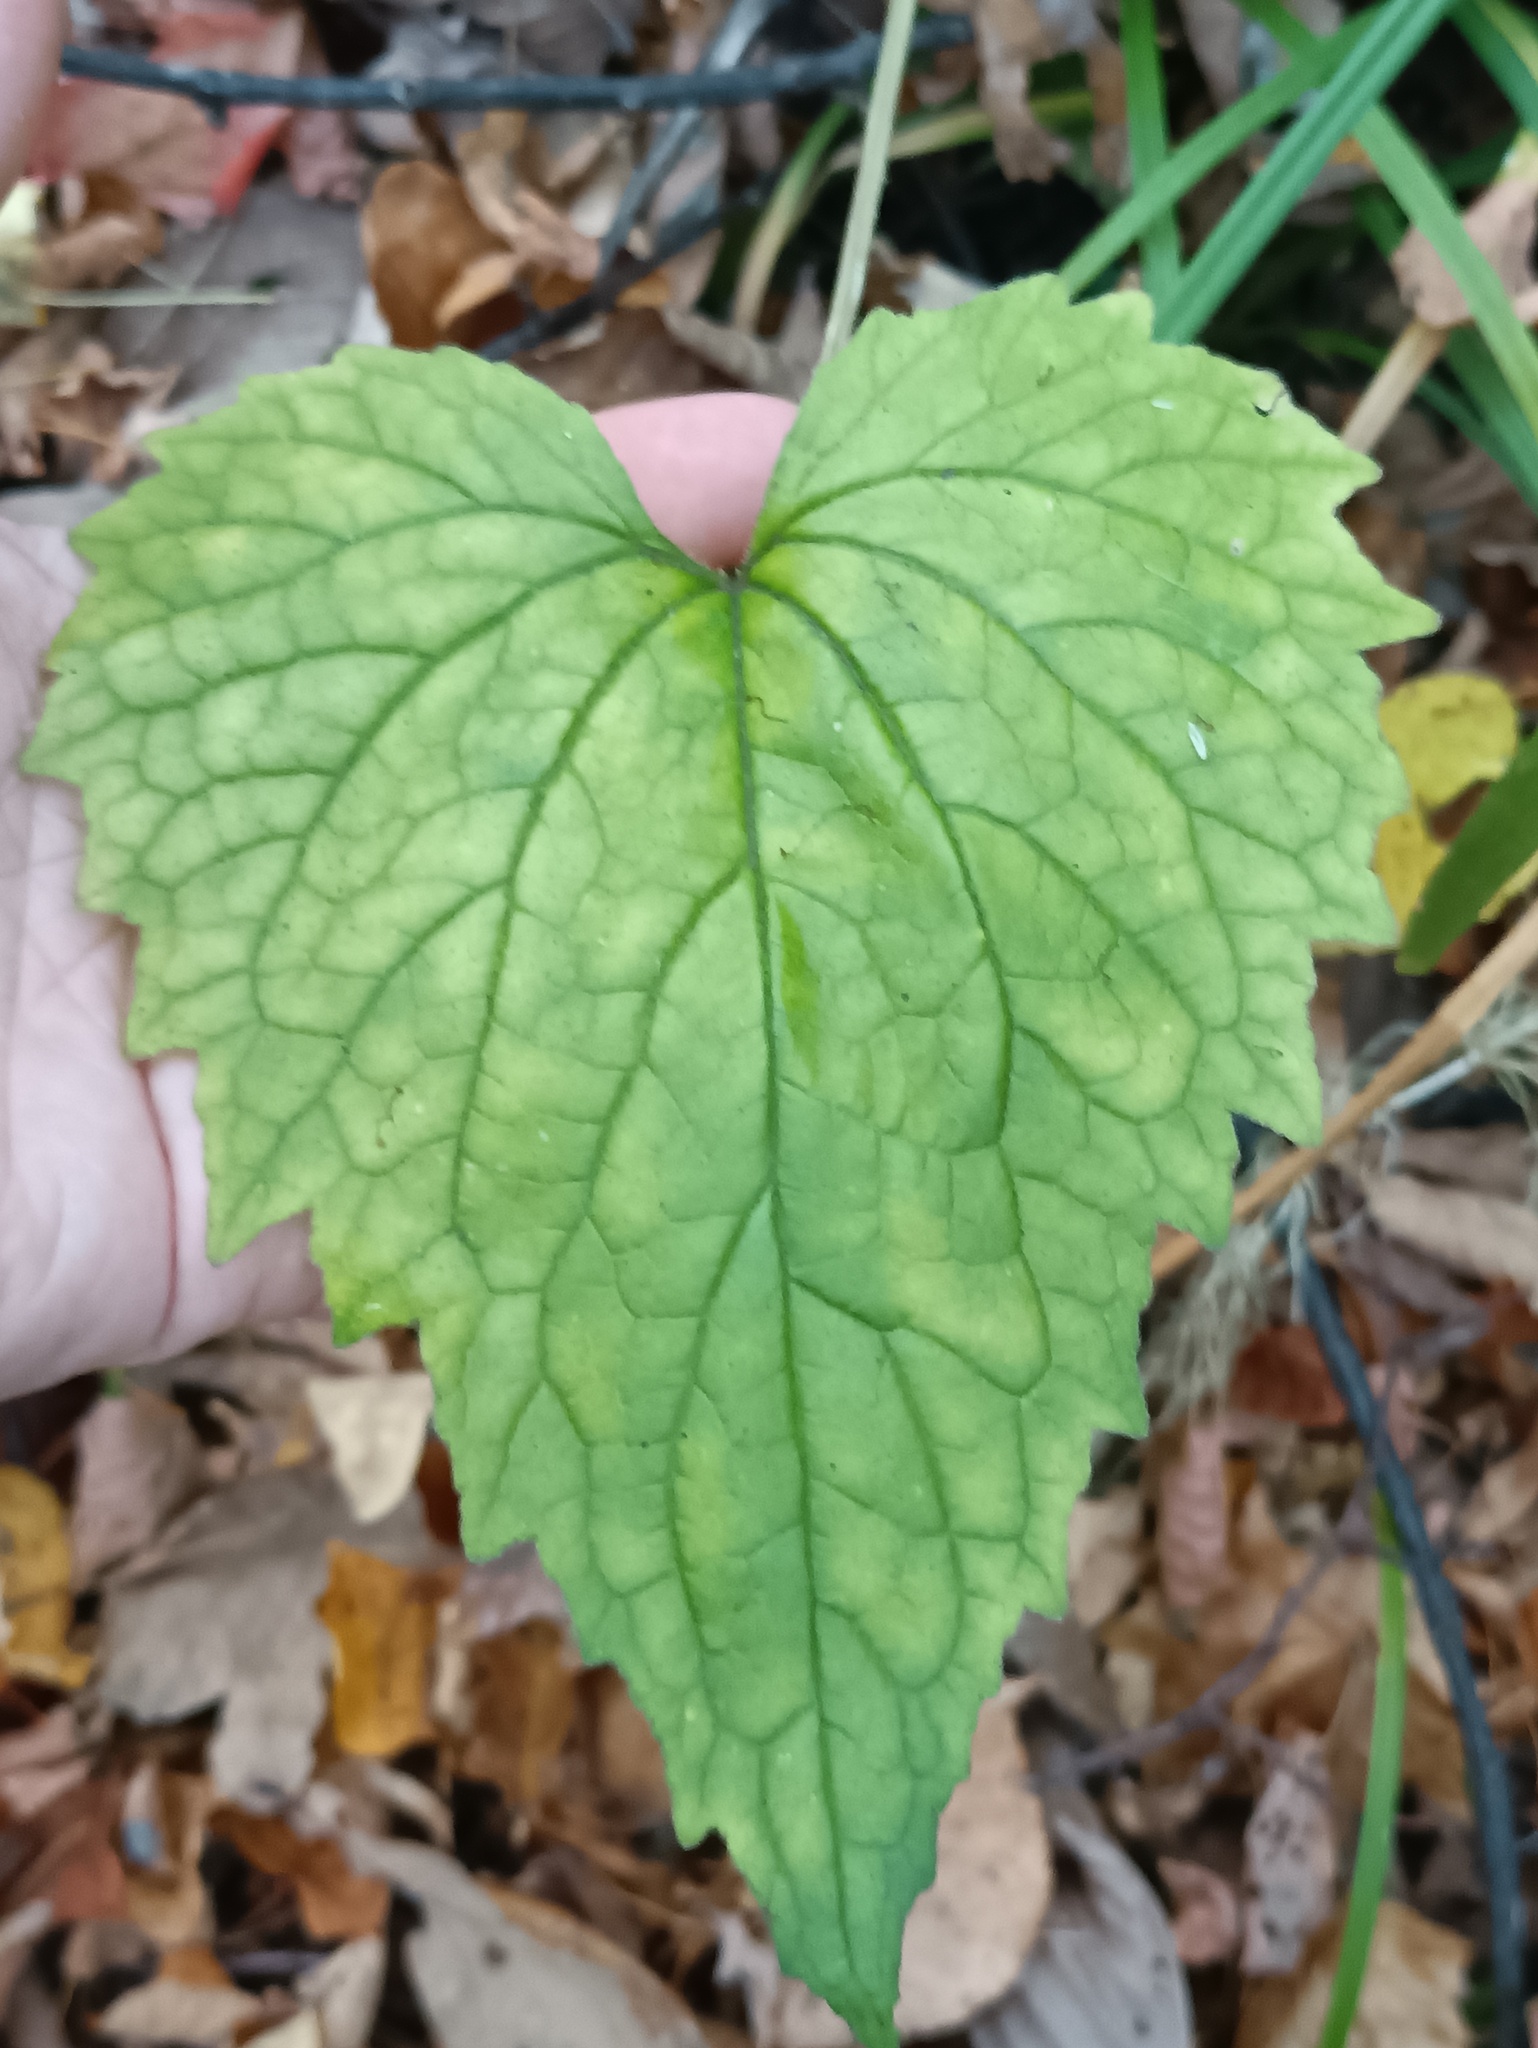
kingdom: Plantae
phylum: Tracheophyta
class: Magnoliopsida
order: Asterales
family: Campanulaceae
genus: Campanula
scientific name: Campanula trachelium
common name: Nettle-leaved bellflower
